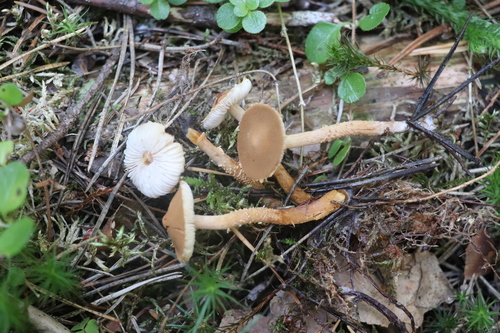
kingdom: Fungi
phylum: Basidiomycota
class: Agaricomycetes
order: Agaricales
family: Tricholomataceae
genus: Cystoderma
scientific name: Cystoderma jasonis
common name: Pine powdercap
